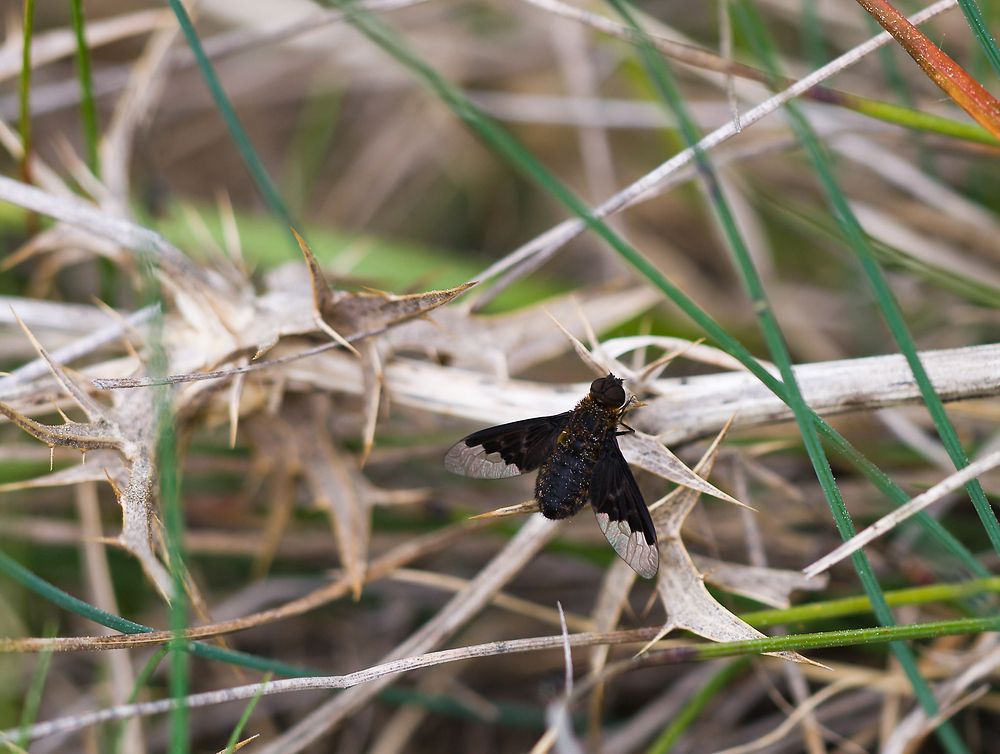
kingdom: Animalia
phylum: Arthropoda
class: Insecta
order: Diptera
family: Bombyliidae
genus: Hemipenthes
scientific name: Hemipenthes morio
